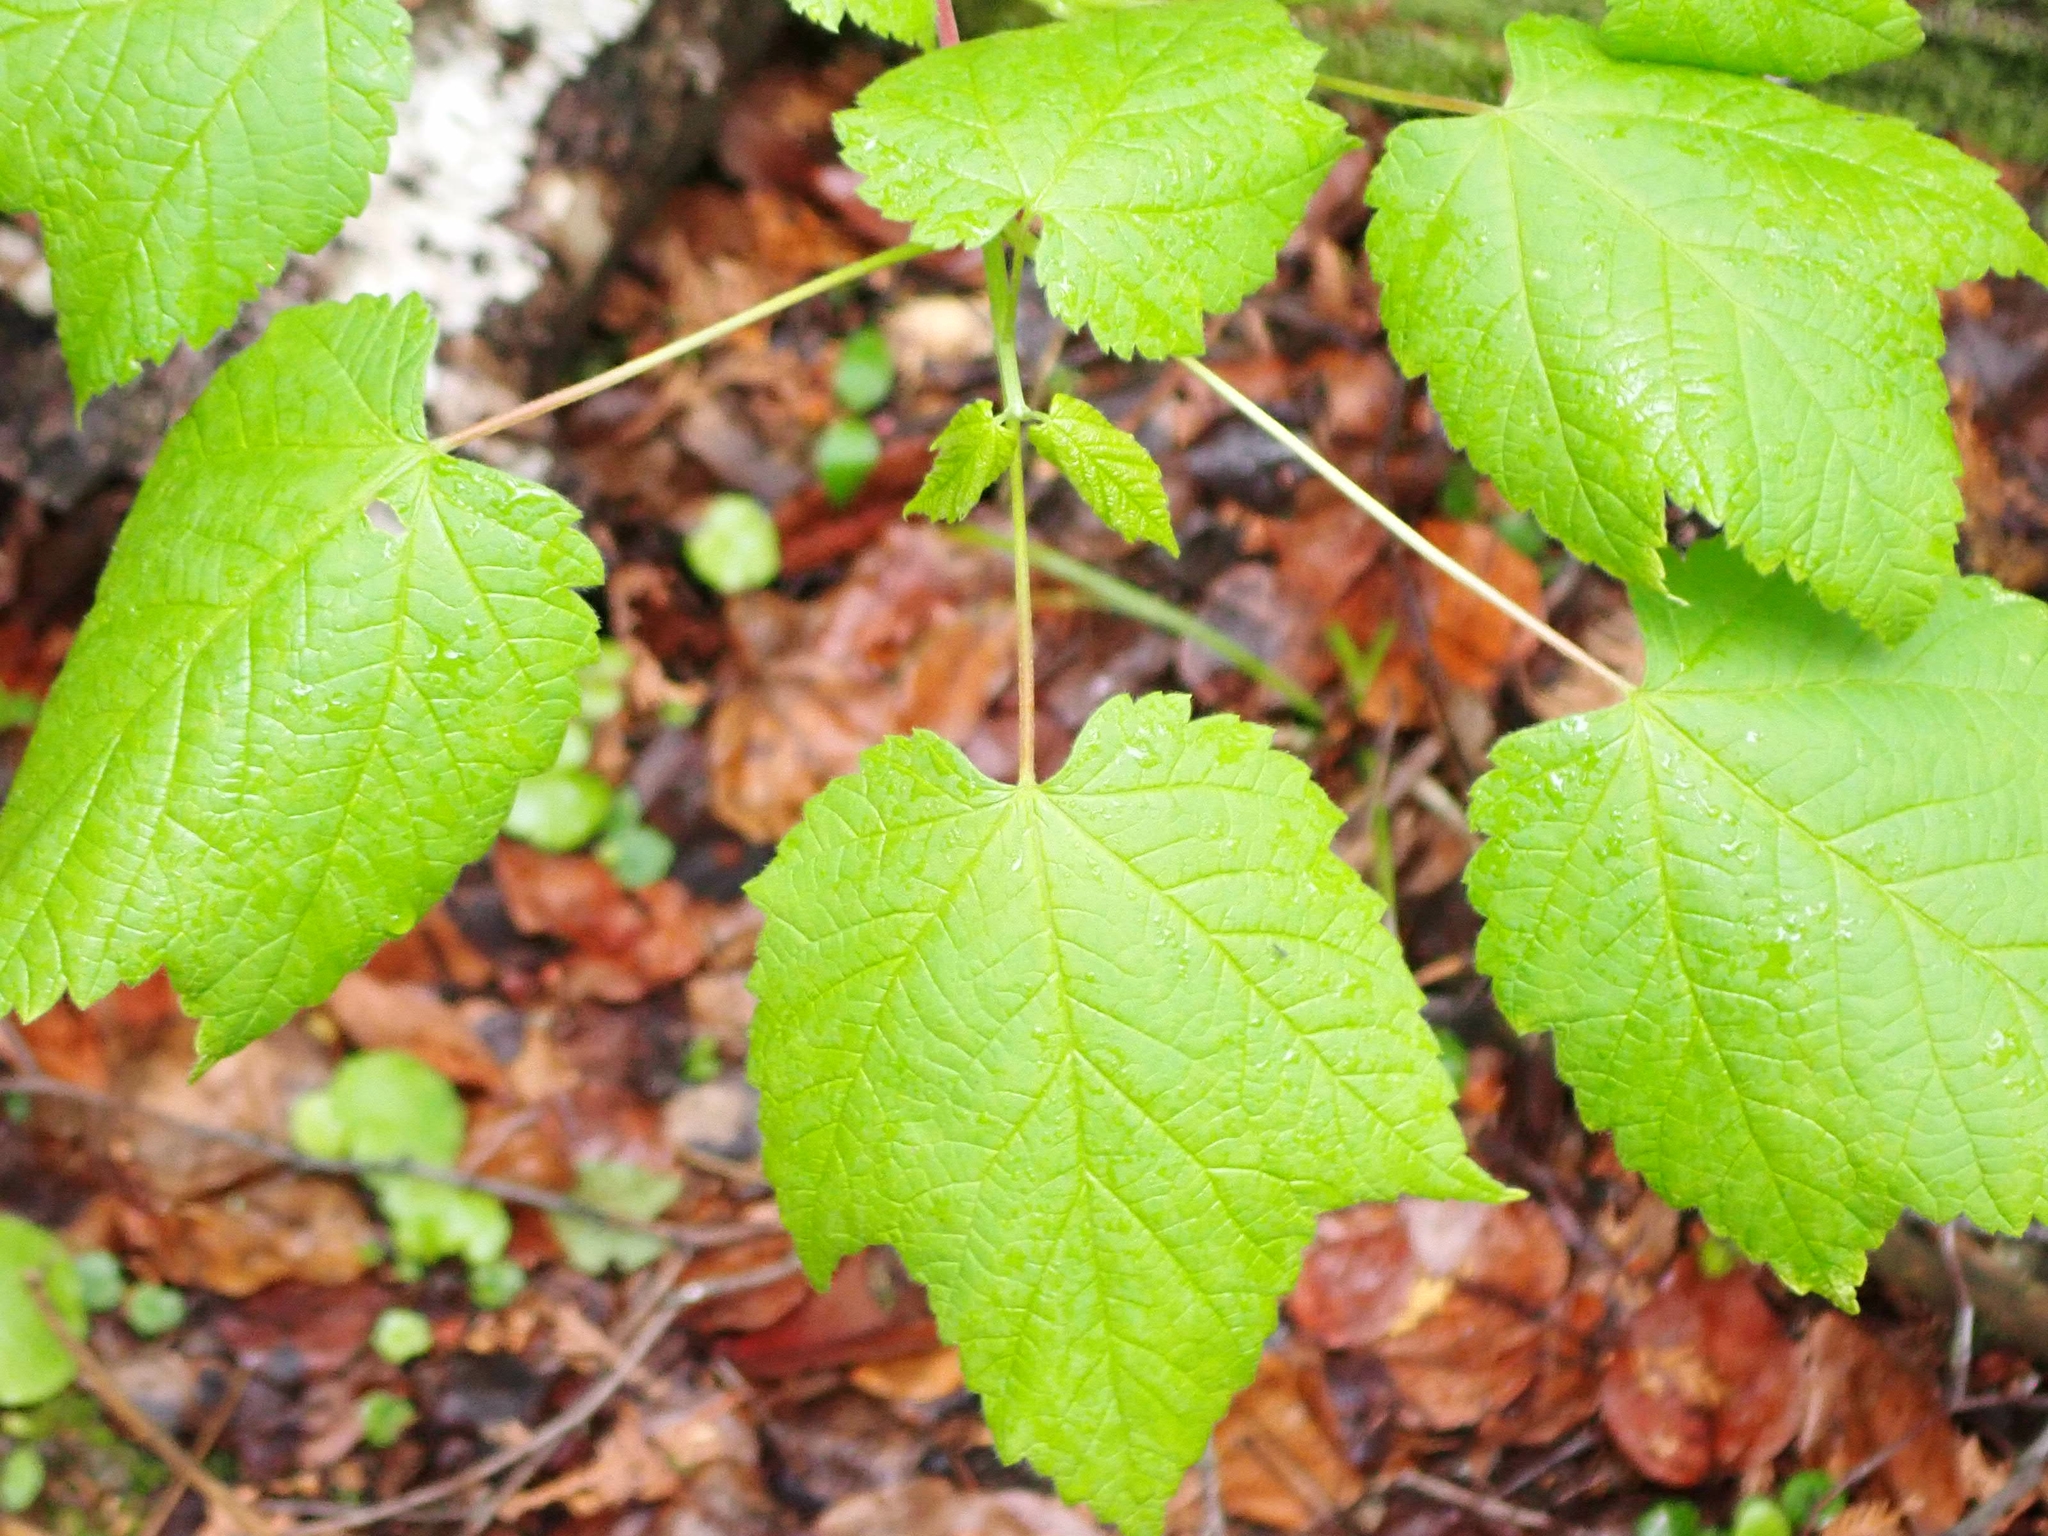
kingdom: Plantae
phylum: Tracheophyta
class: Magnoliopsida
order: Sapindales
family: Sapindaceae
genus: Acer
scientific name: Acer spicatum
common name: Mountain maple
